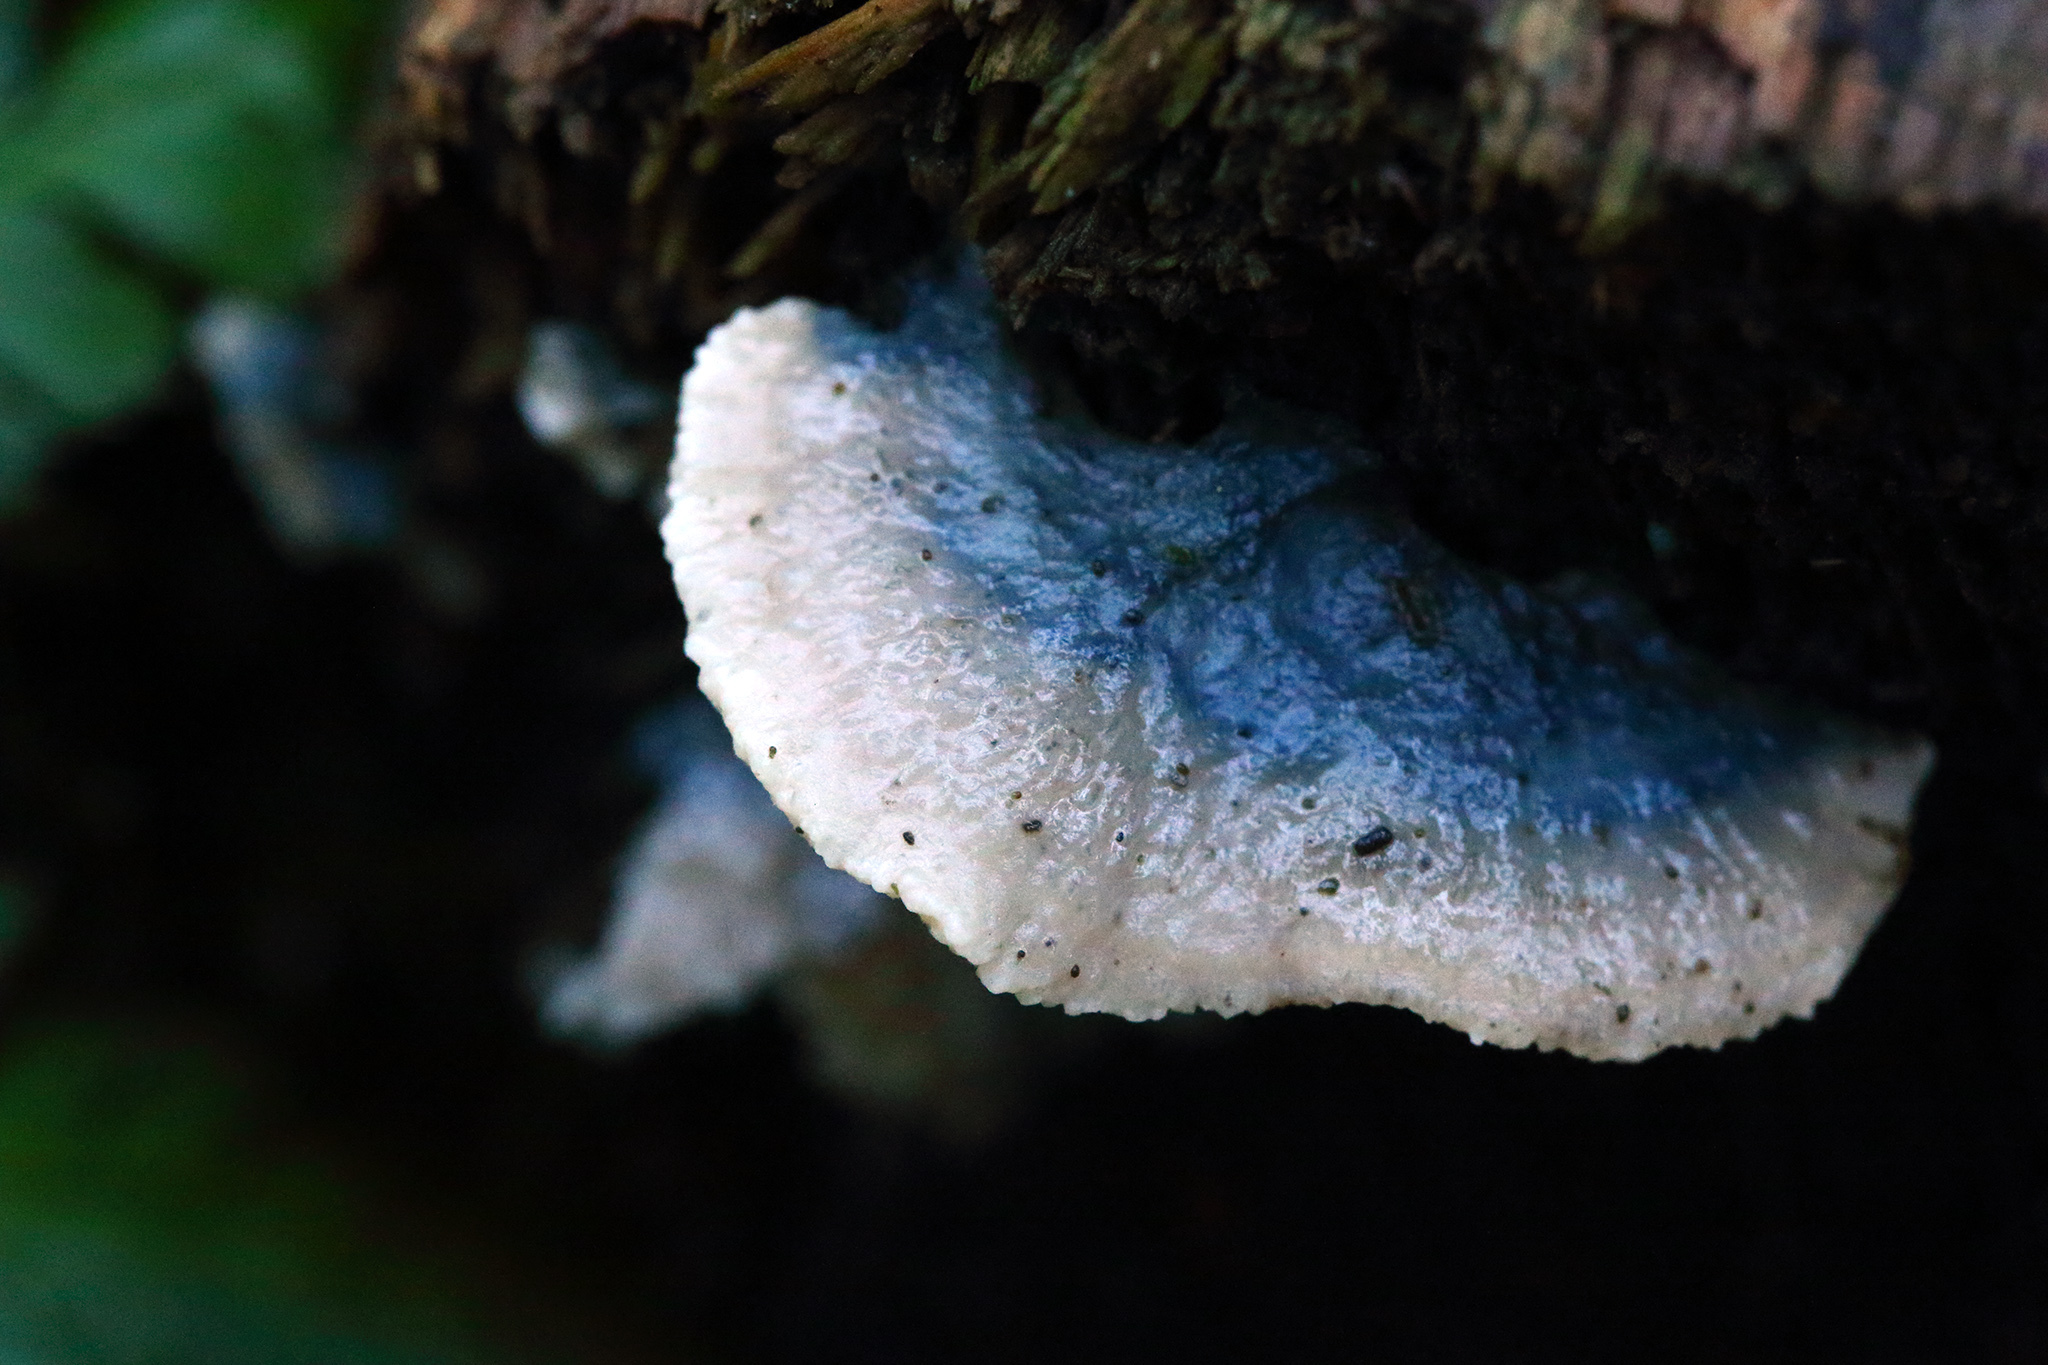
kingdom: Fungi
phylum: Basidiomycota
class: Agaricomycetes
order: Polyporales
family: Polyporaceae
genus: Cyanosporus
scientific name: Cyanosporus caesius
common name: Blue cheese polypore
